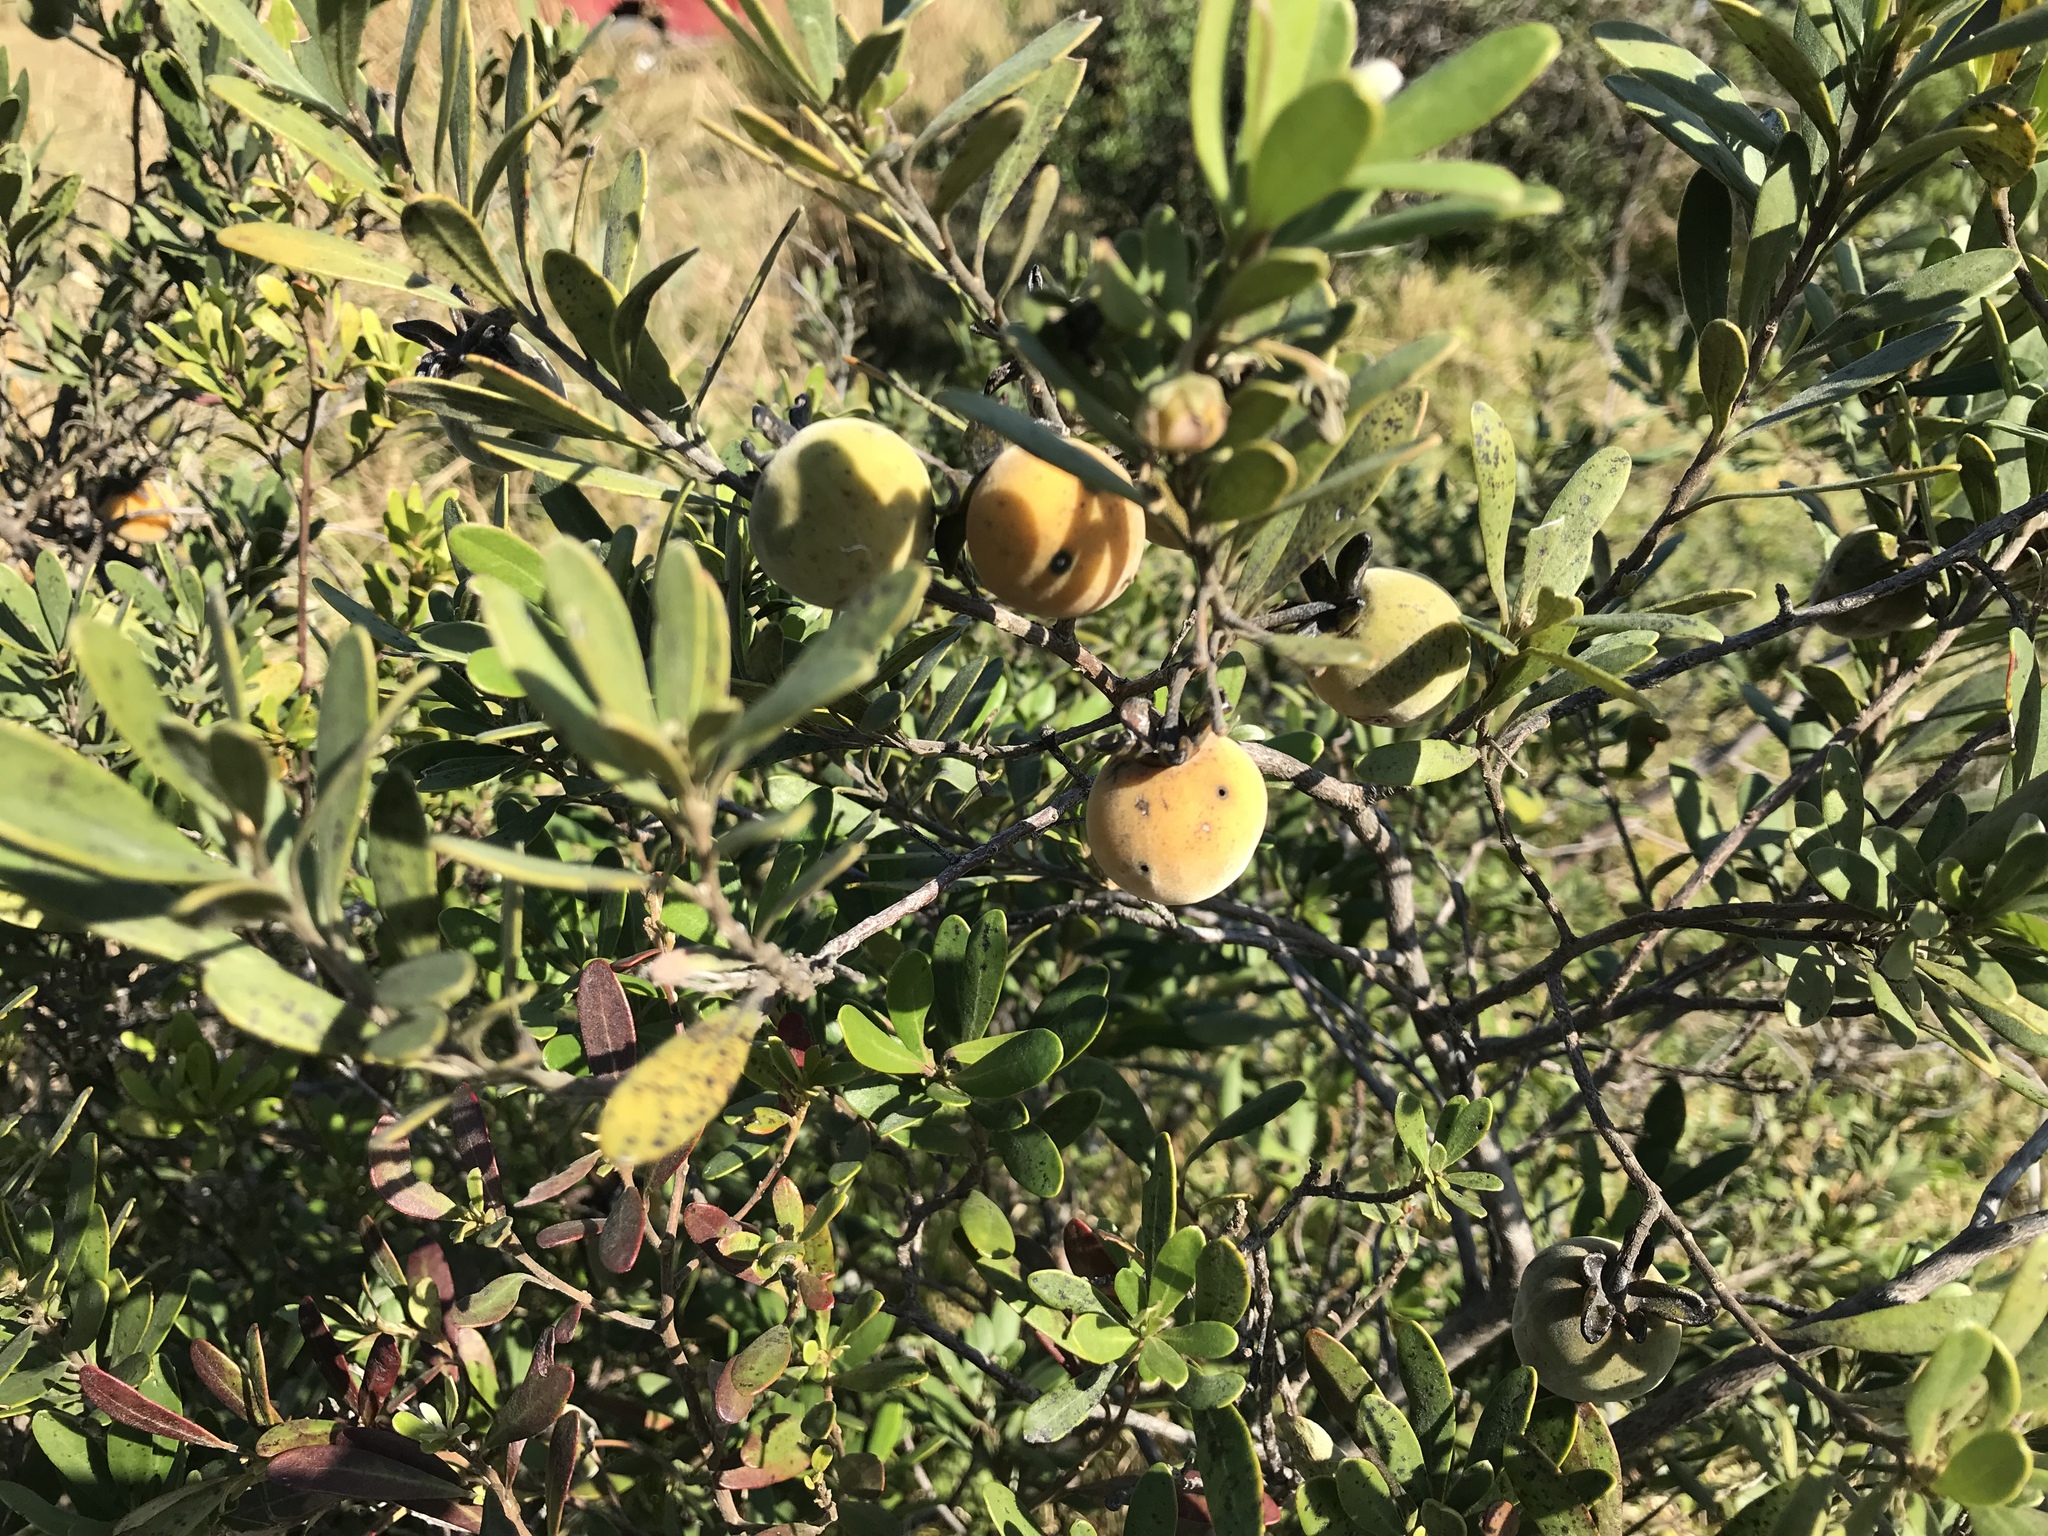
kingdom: Plantae
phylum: Tracheophyta
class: Magnoliopsida
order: Ericales
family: Ebenaceae
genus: Diospyros
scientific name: Diospyros dichrophylla
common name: Common star-apple
